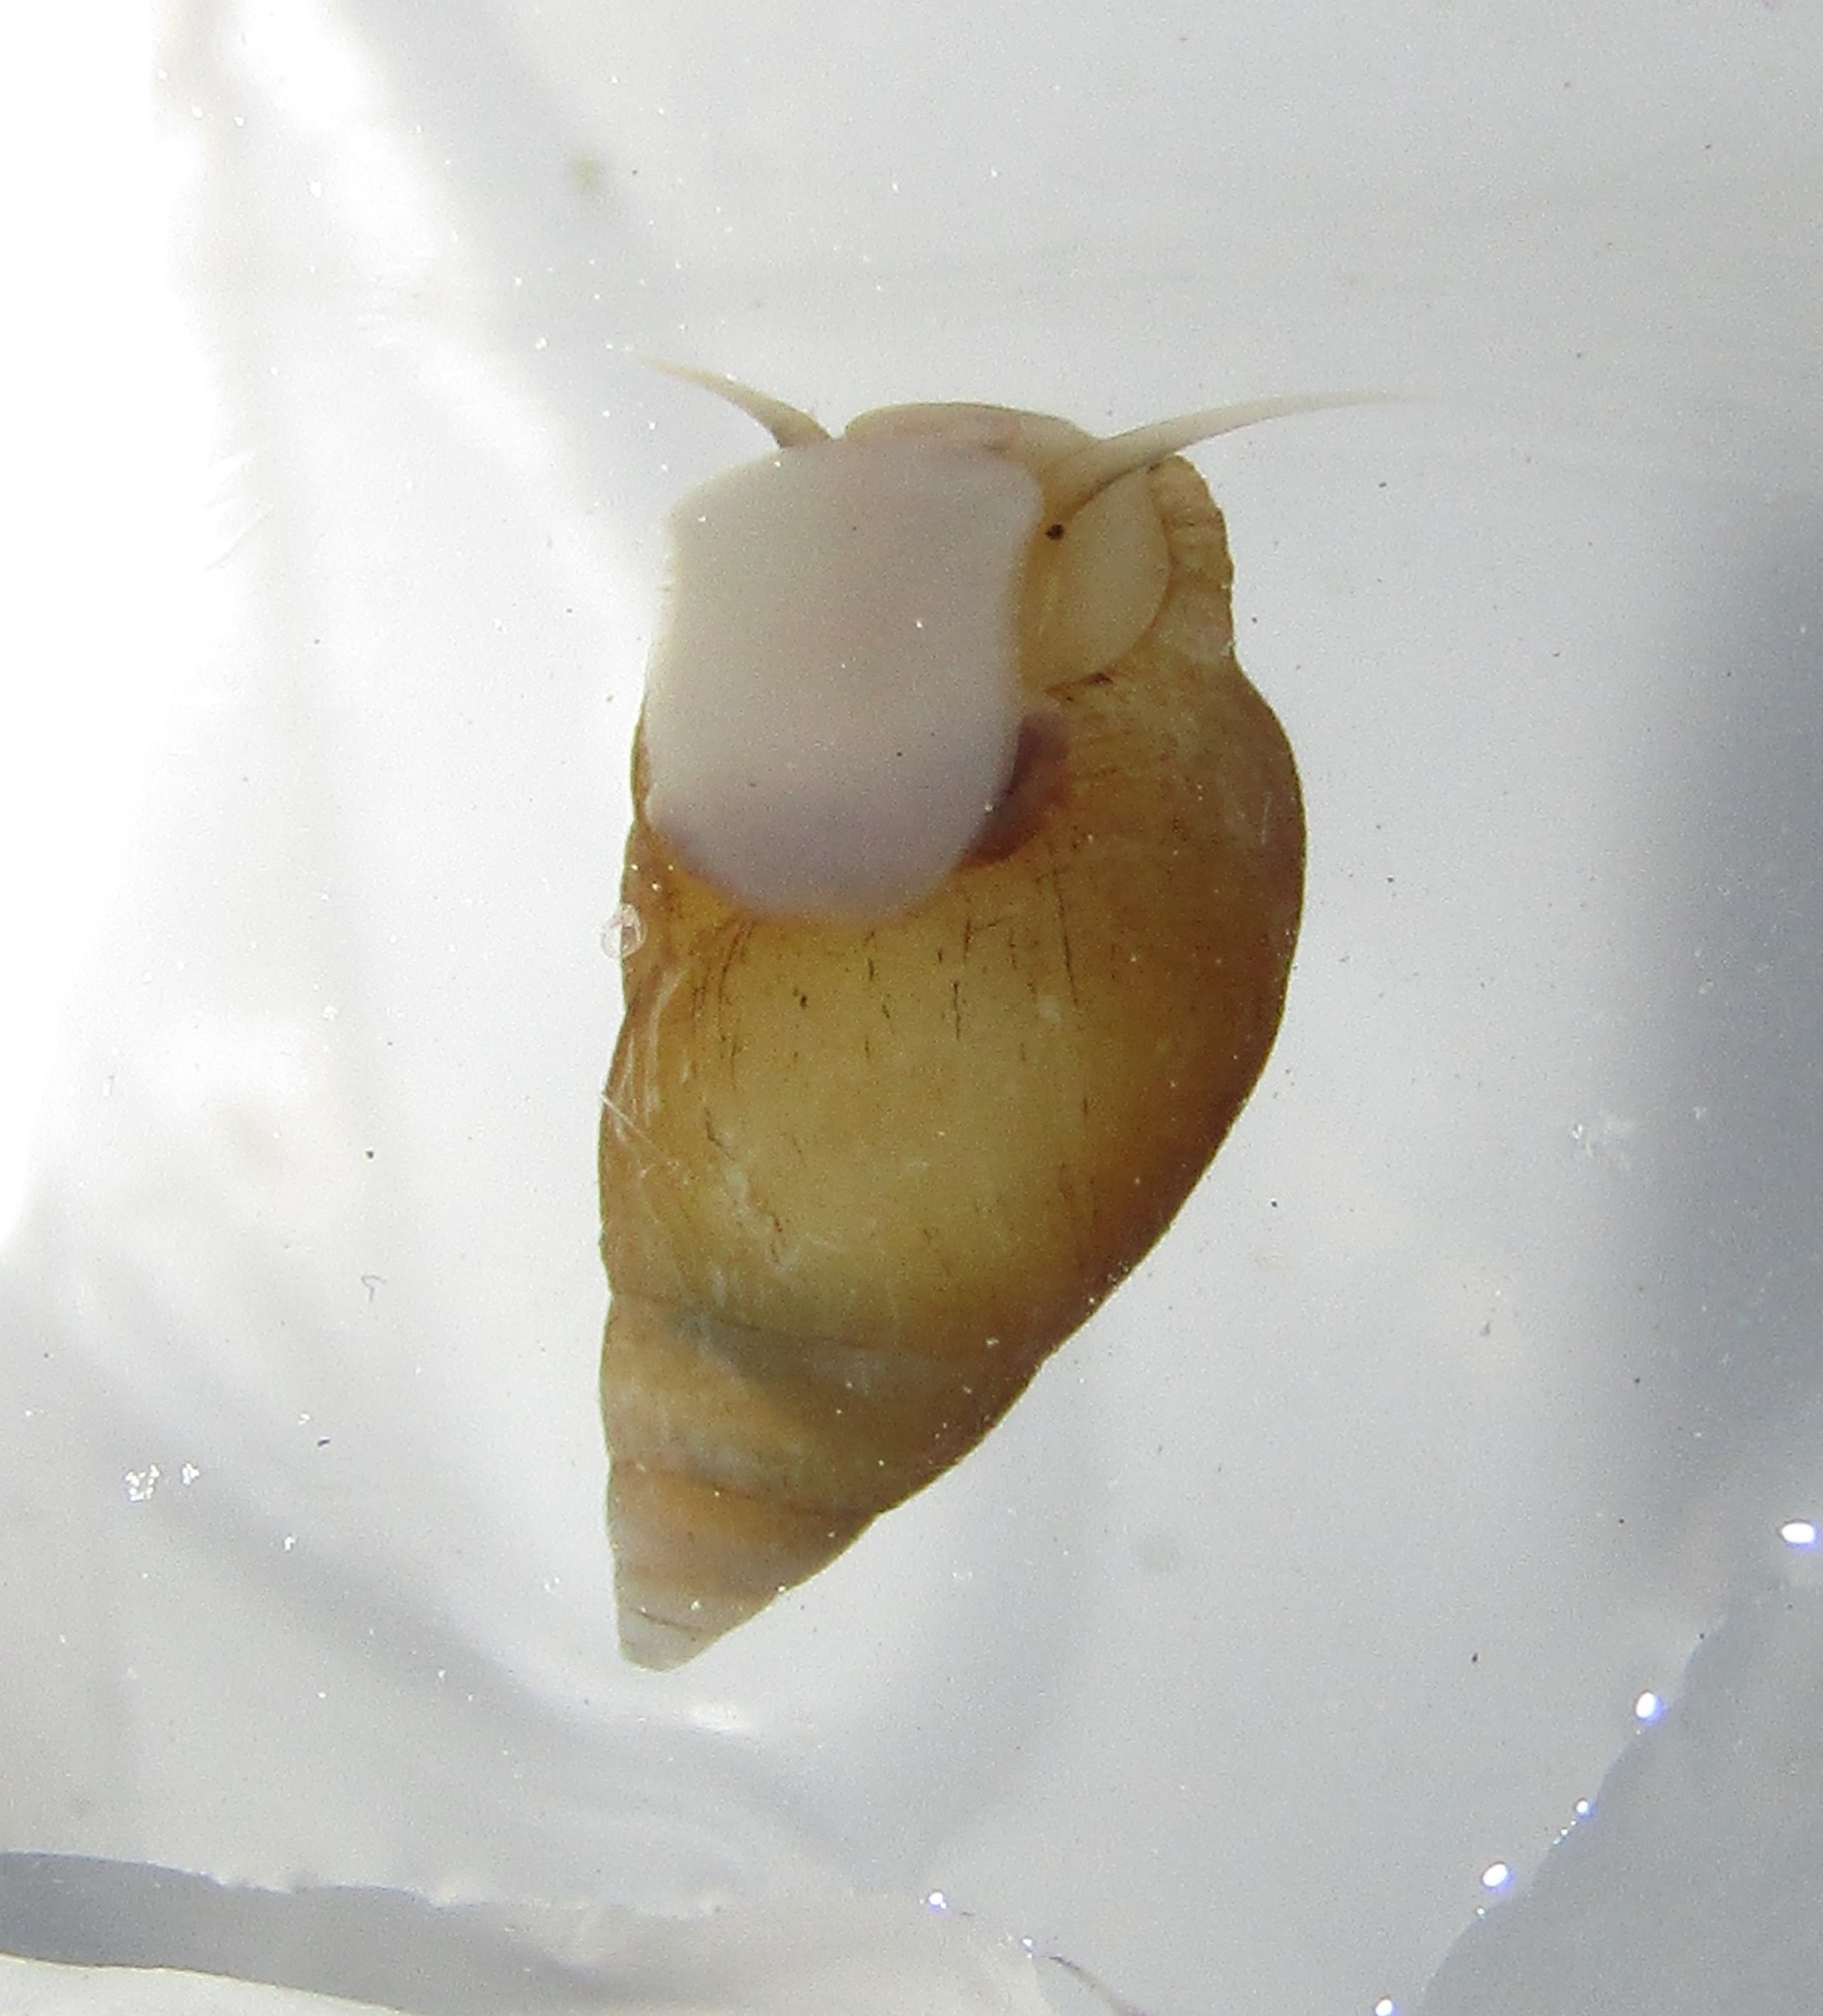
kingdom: Animalia
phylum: Mollusca
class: Gastropoda
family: Planaxidae
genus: Hinea
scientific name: Hinea brasiliana
